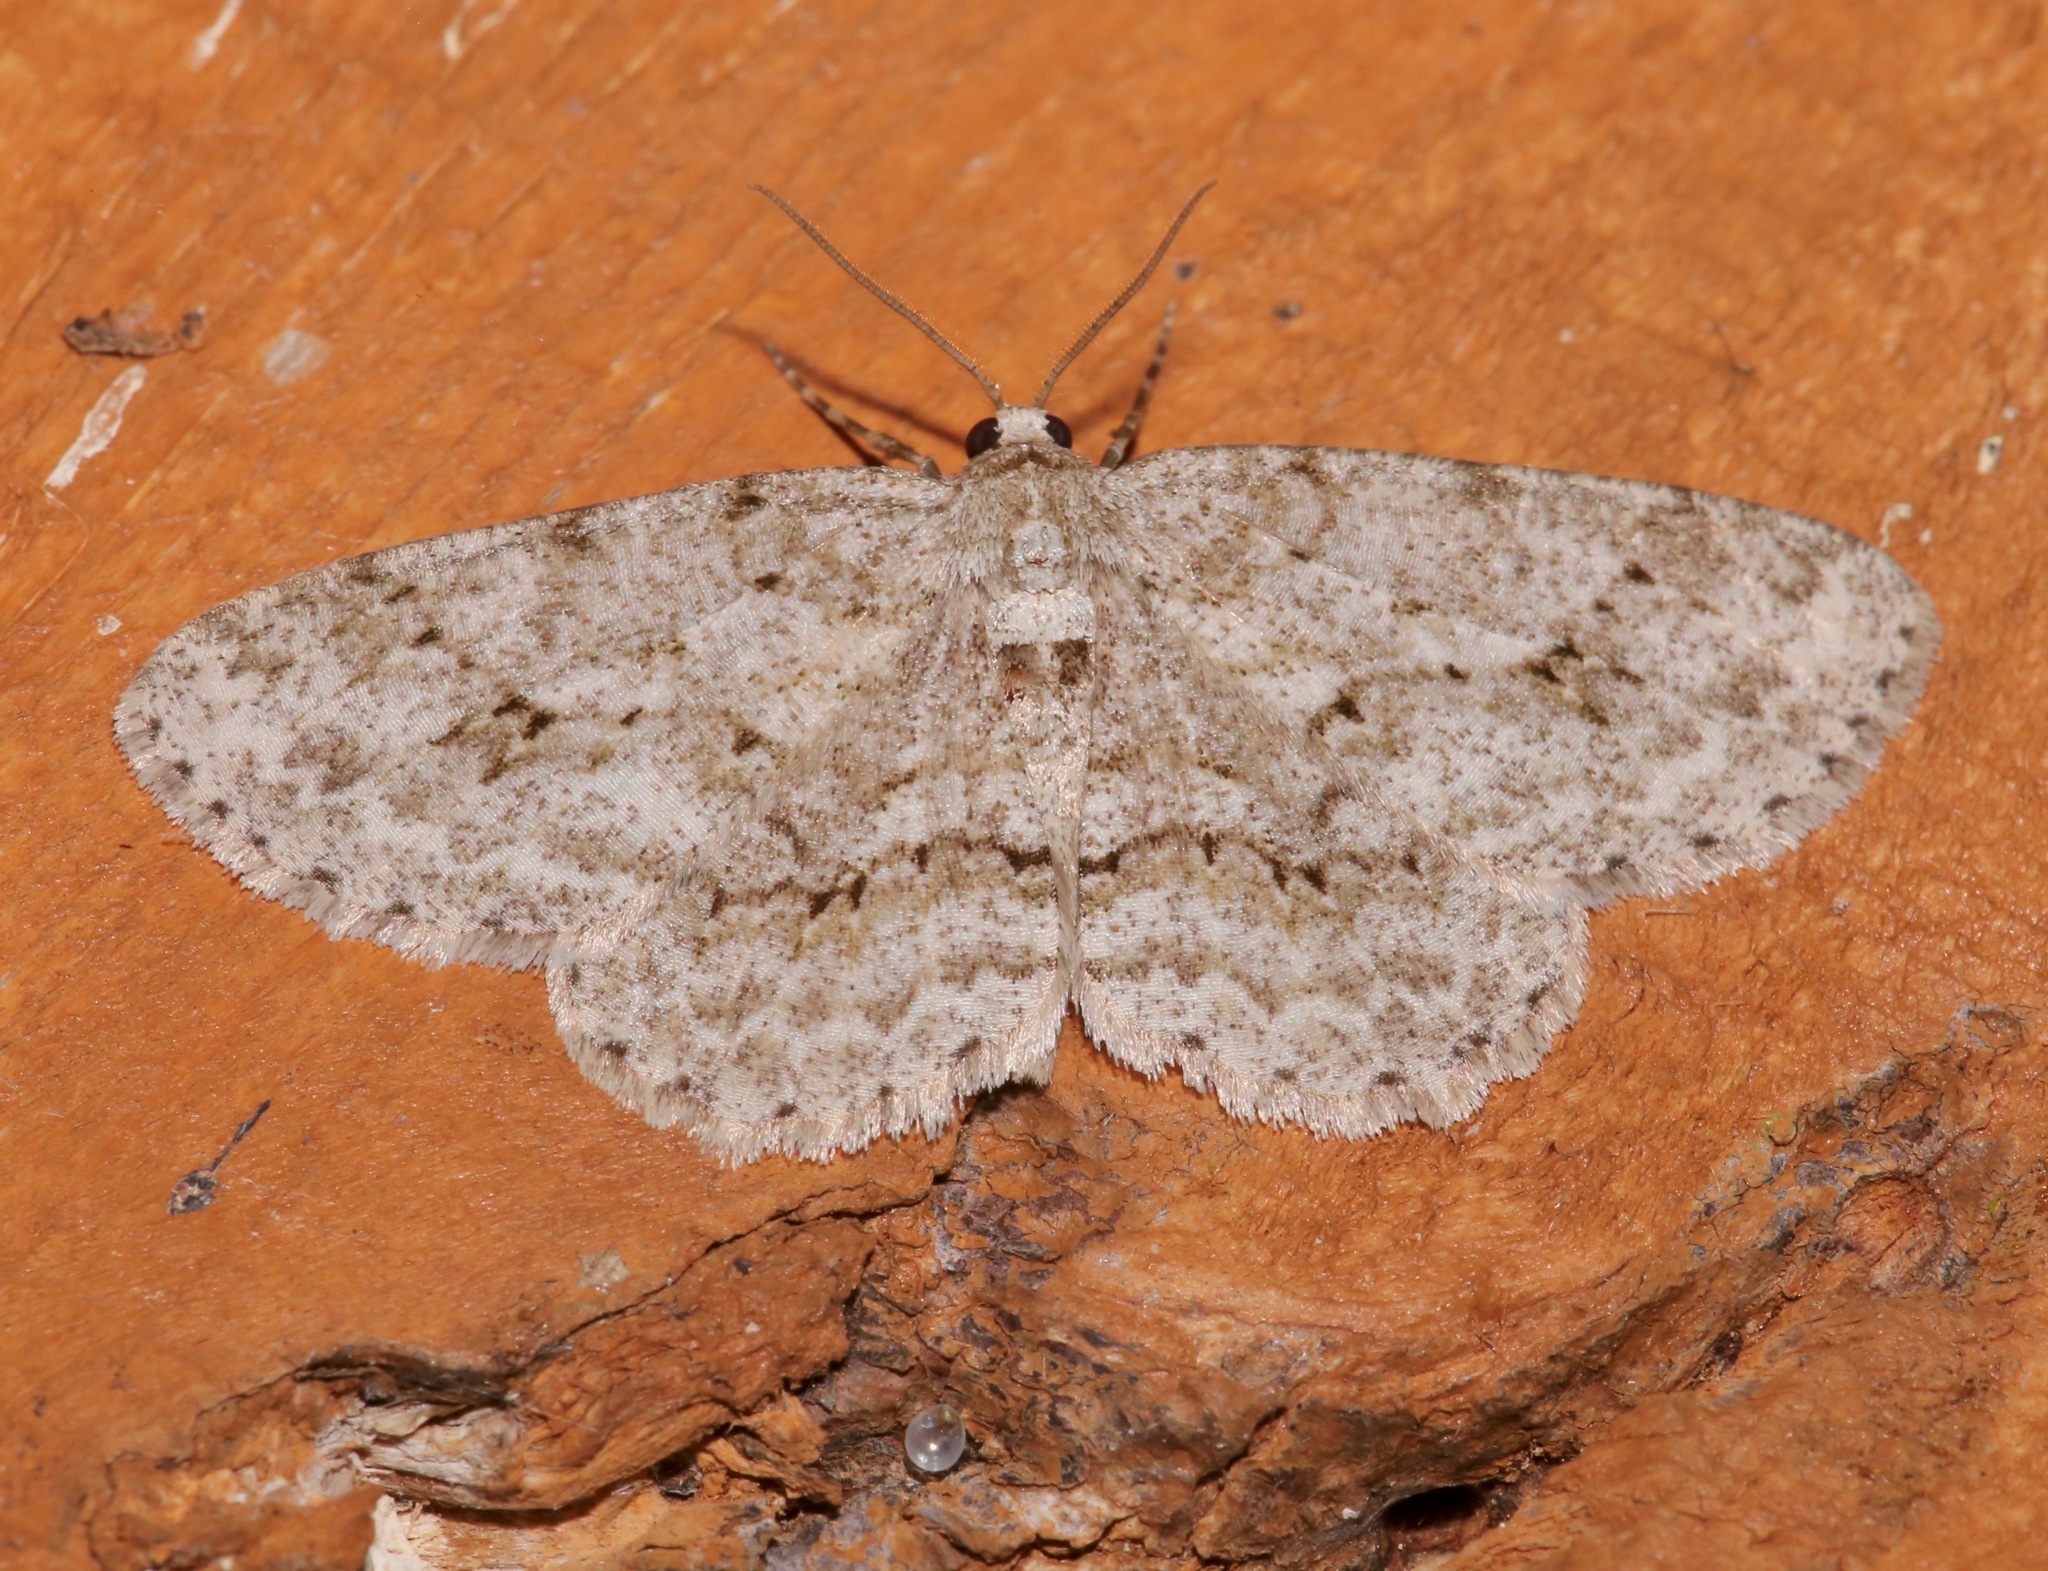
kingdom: Animalia
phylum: Arthropoda
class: Insecta
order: Lepidoptera
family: Geometridae
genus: Ectropis
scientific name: Ectropis crepuscularia
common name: Engrailed
